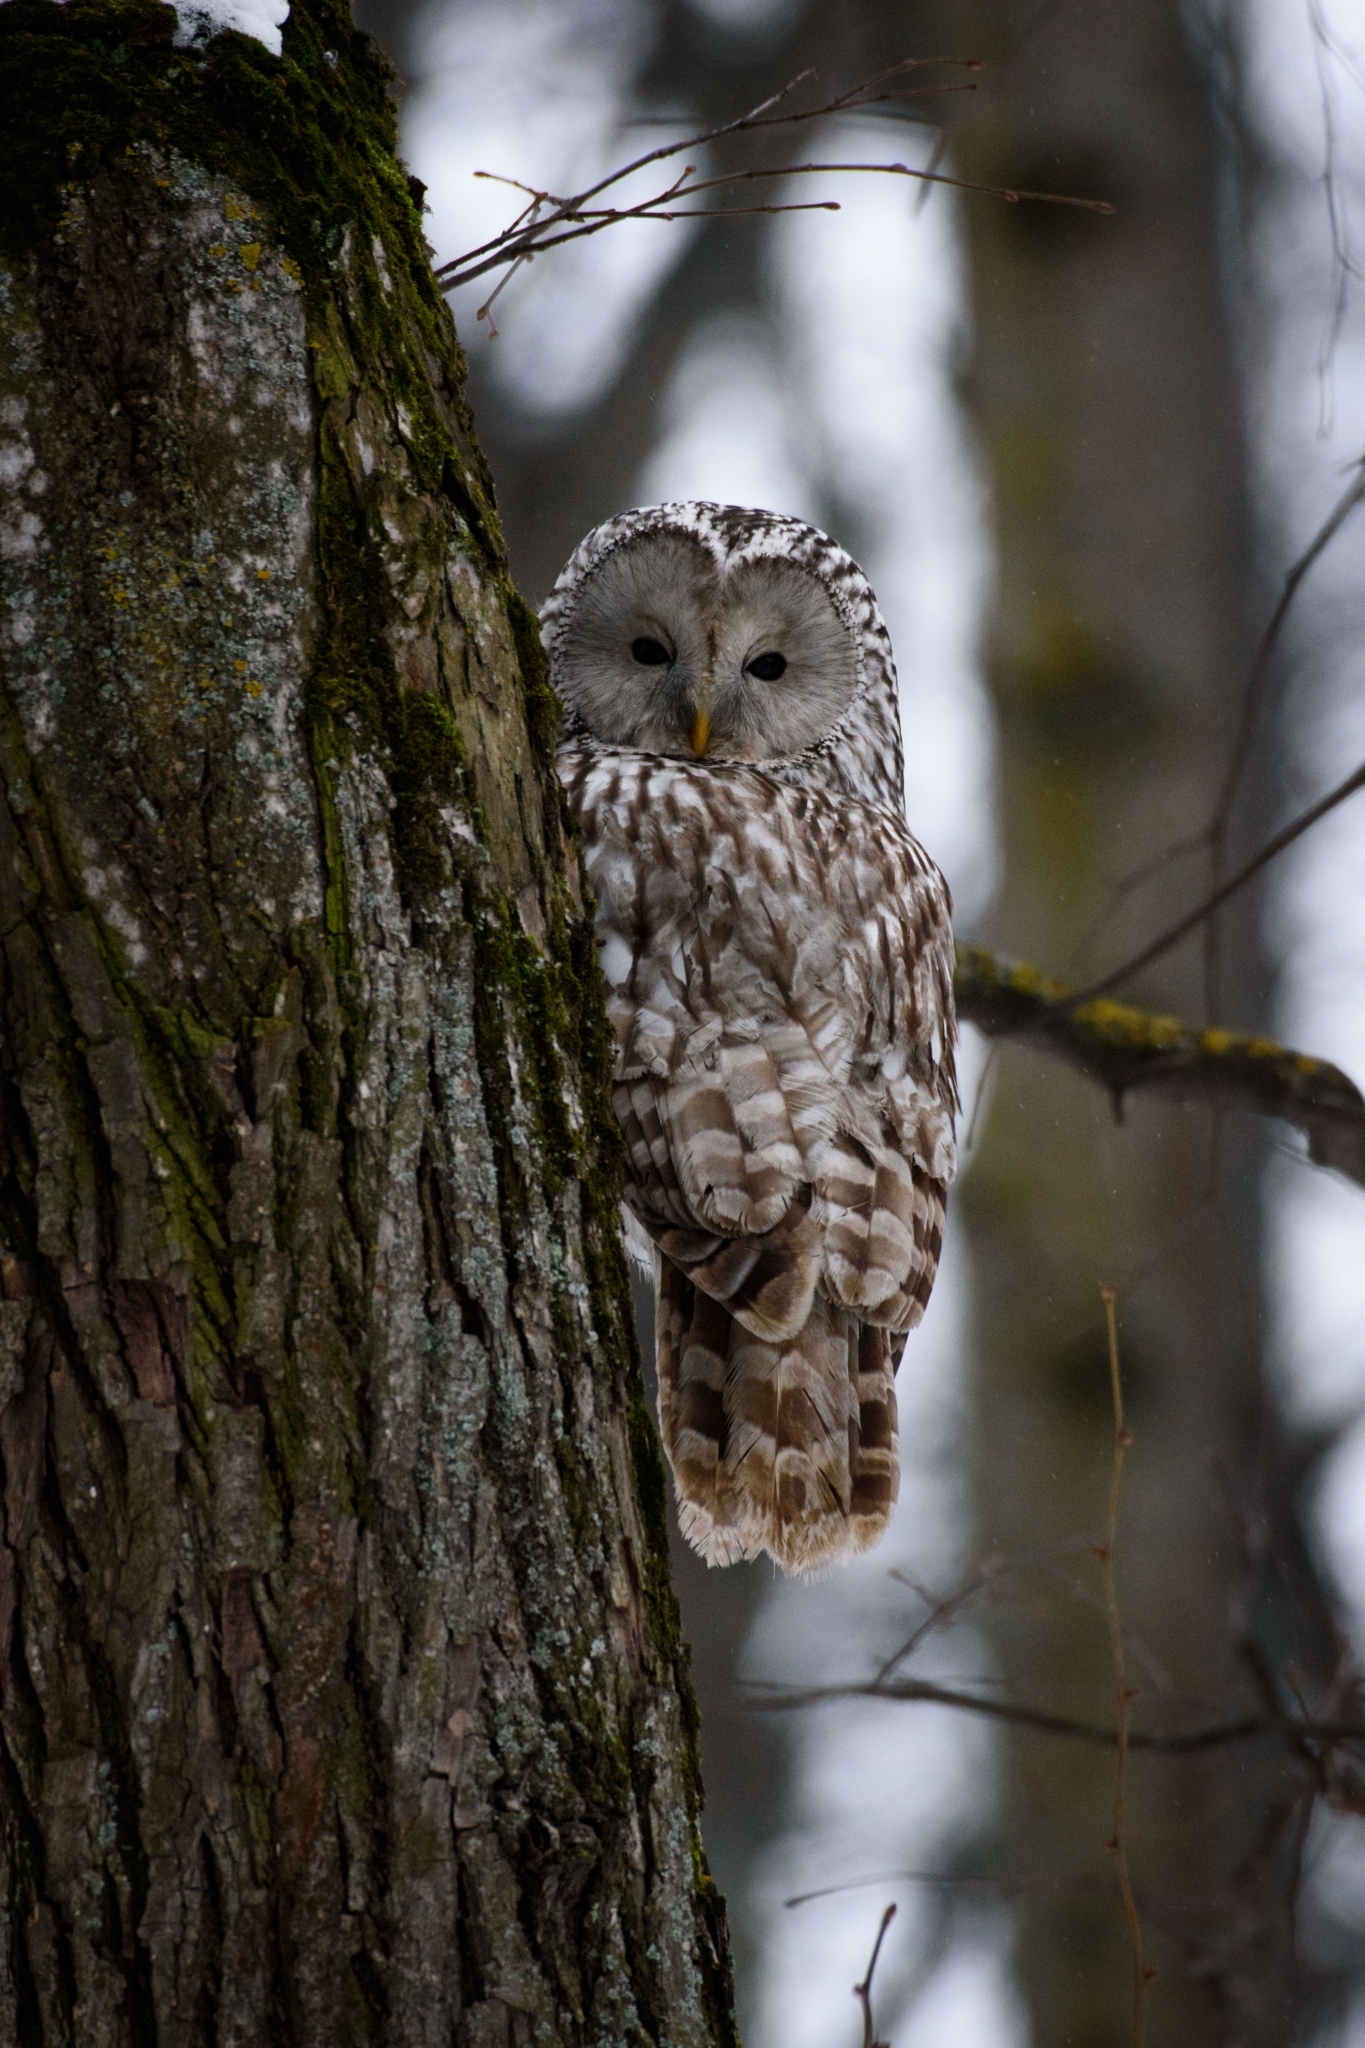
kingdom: Animalia
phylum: Chordata
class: Aves
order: Strigiformes
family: Strigidae
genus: Strix
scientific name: Strix uralensis
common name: Ural owl
